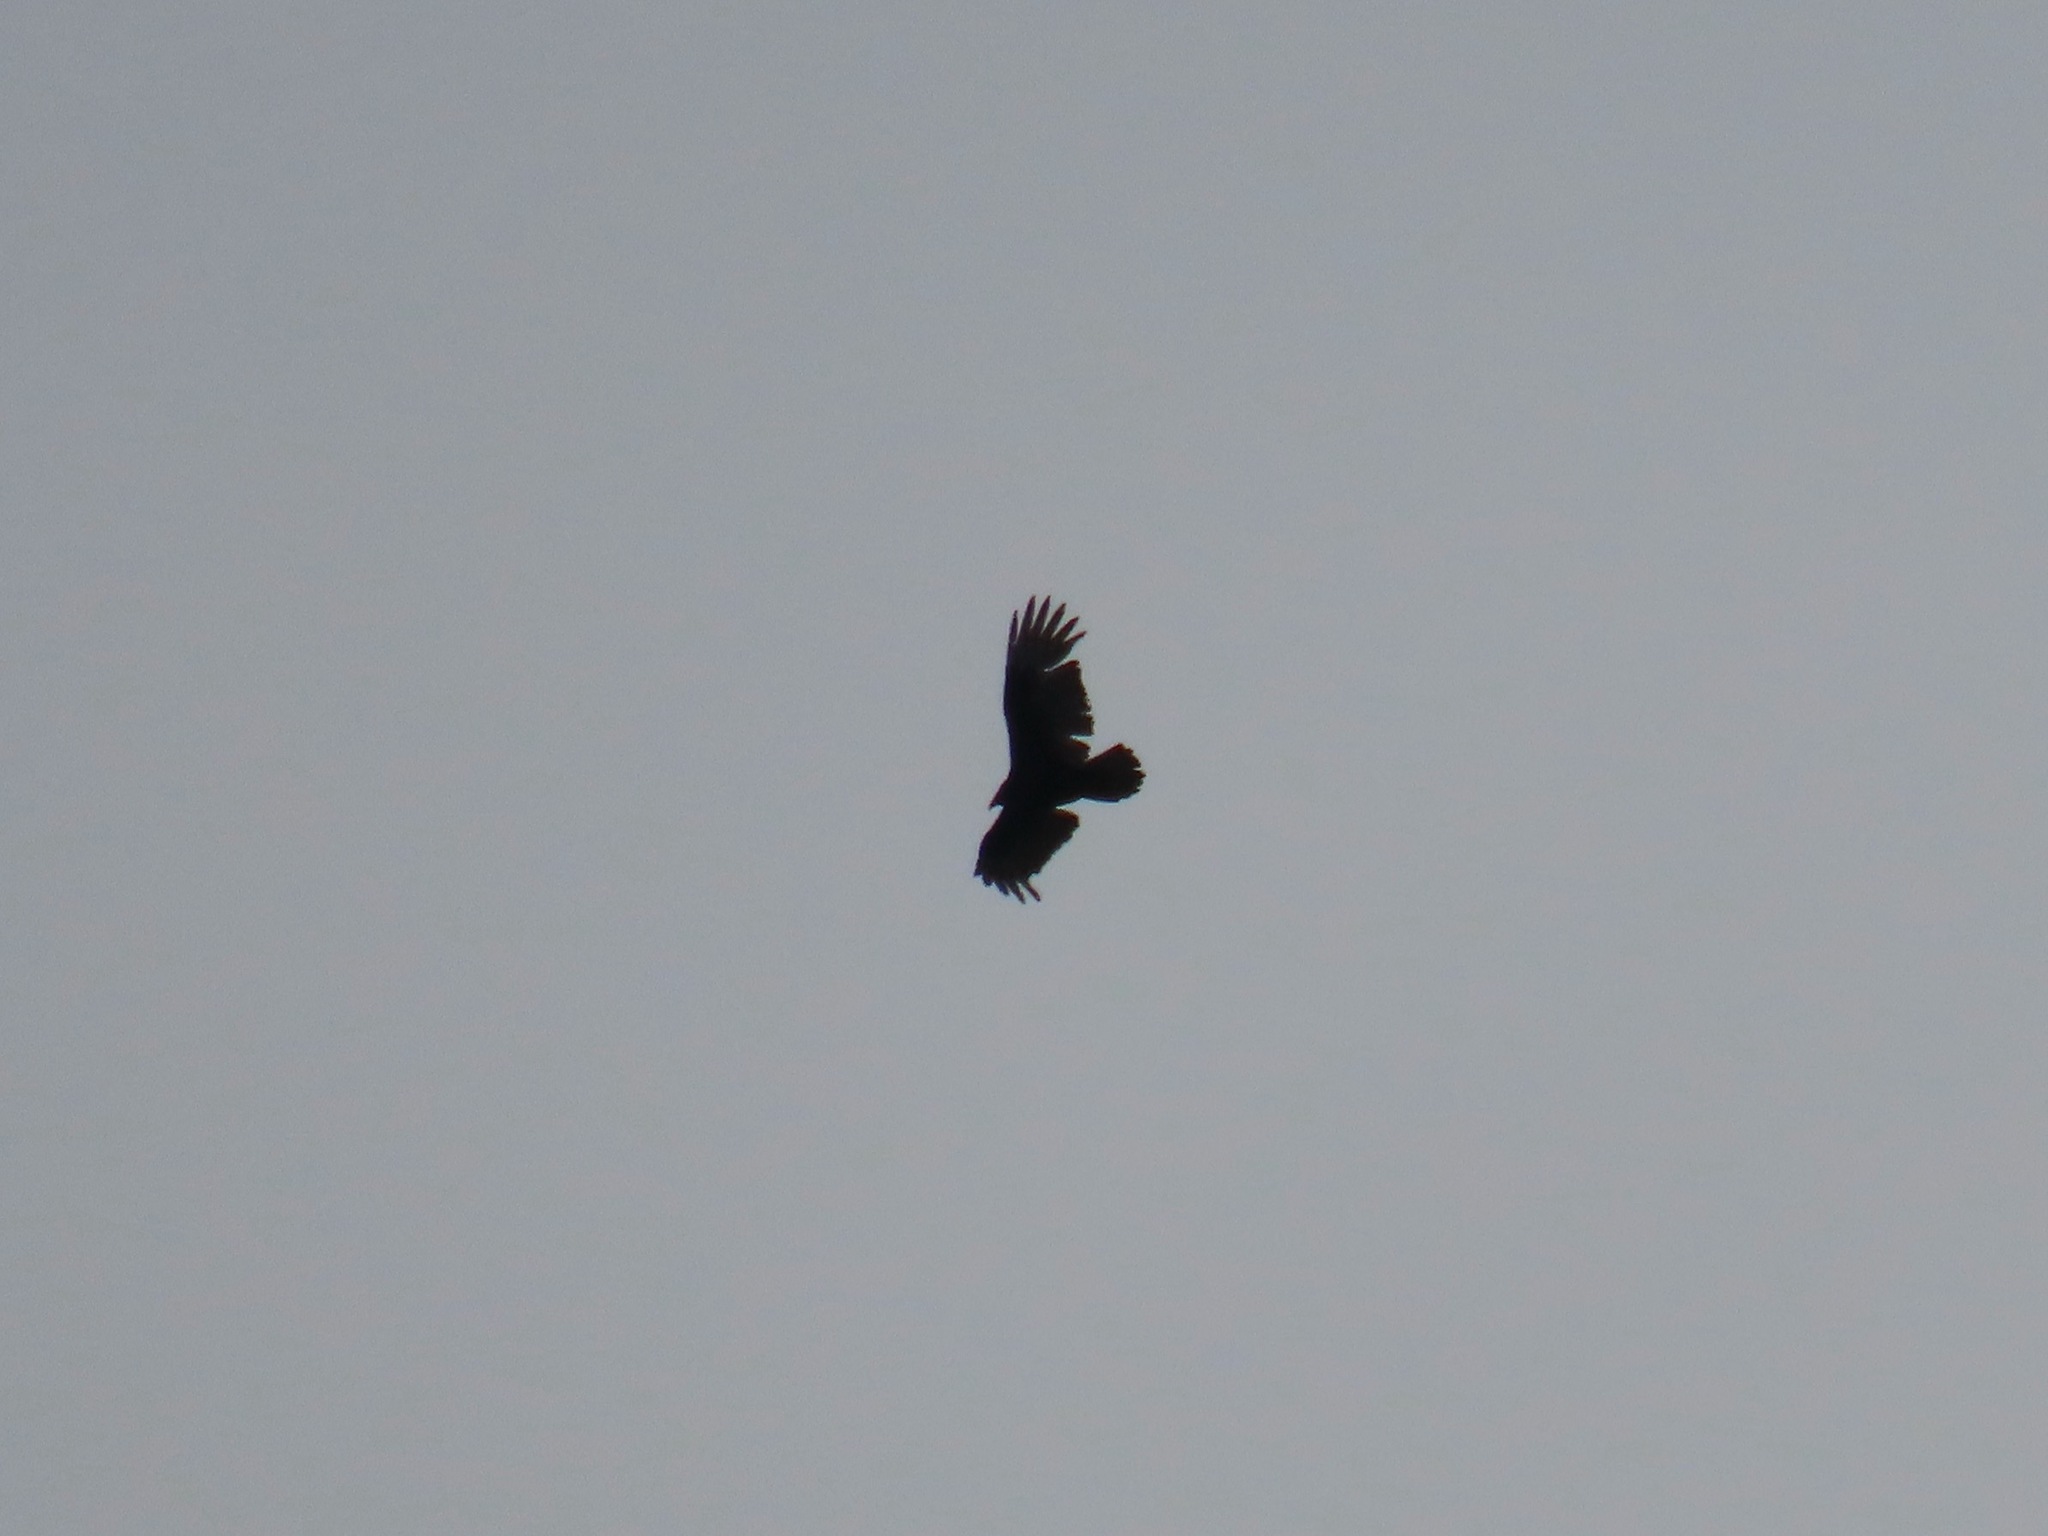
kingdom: Animalia
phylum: Chordata
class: Aves
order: Accipitriformes
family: Cathartidae
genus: Cathartes
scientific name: Cathartes aura
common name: Turkey vulture
